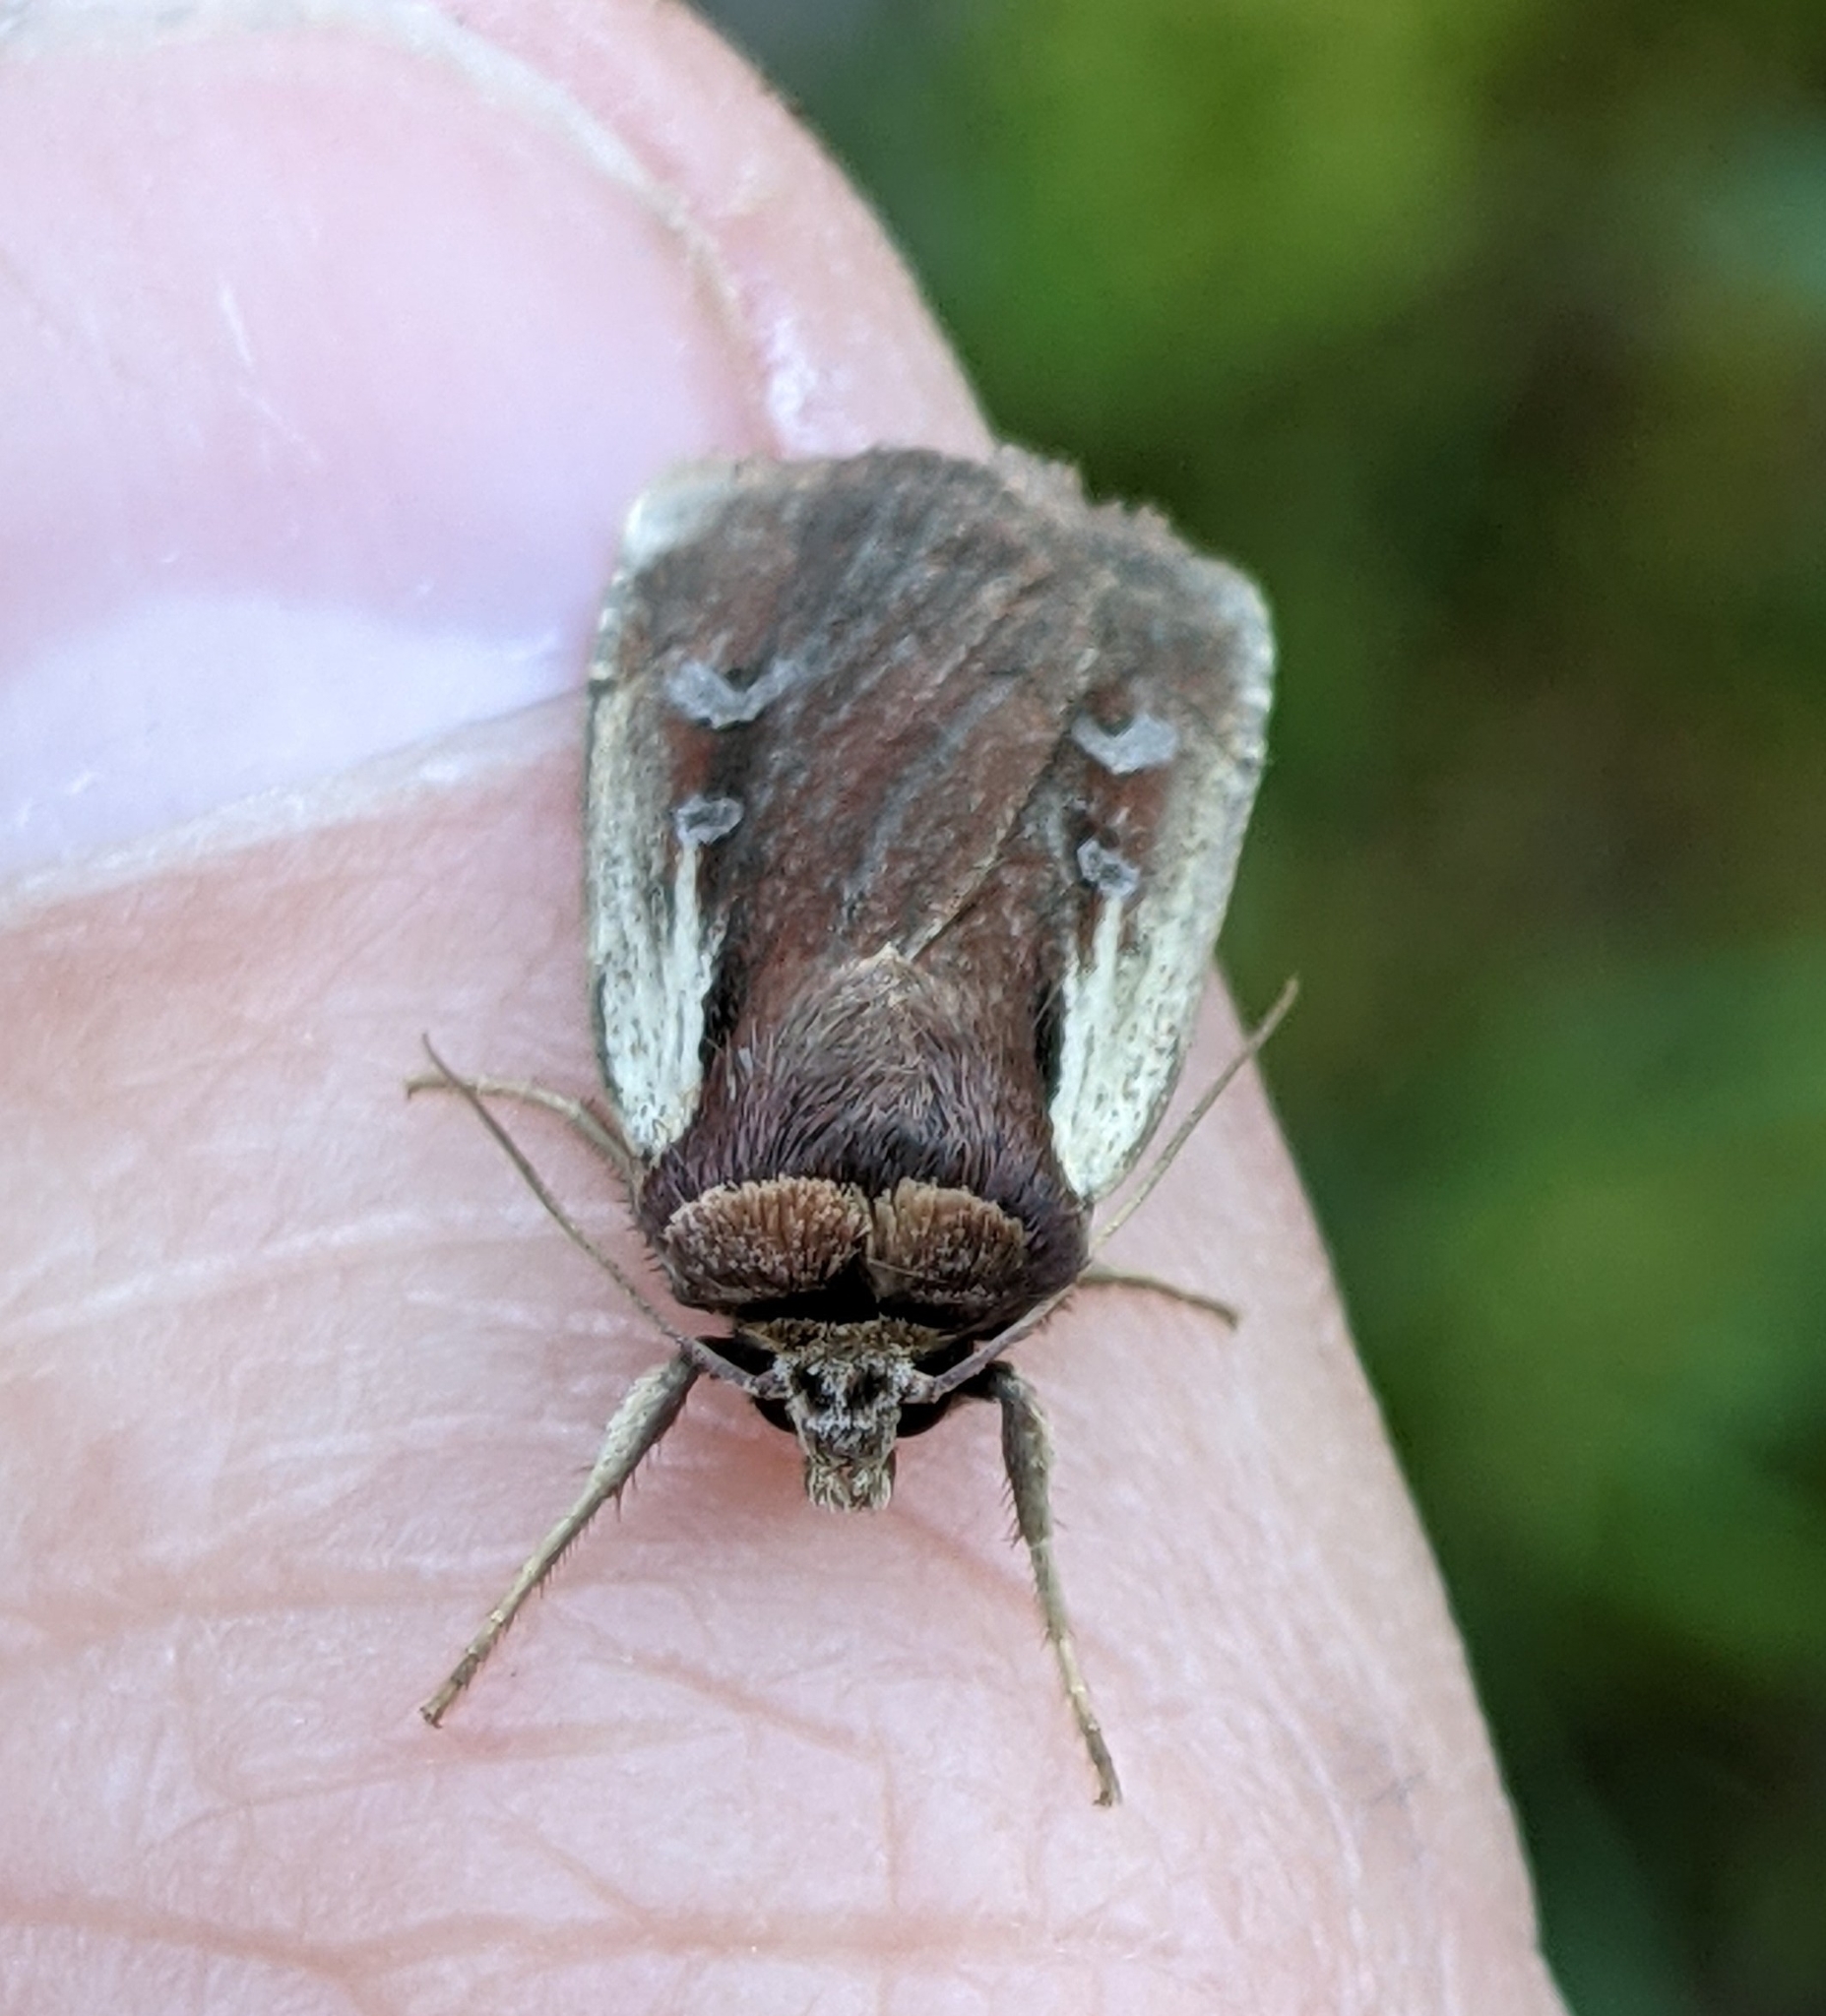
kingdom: Animalia
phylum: Arthropoda
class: Insecta
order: Lepidoptera
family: Noctuidae
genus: Ochropleura
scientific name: Ochropleura implecta
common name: Flame-shouldered dart
